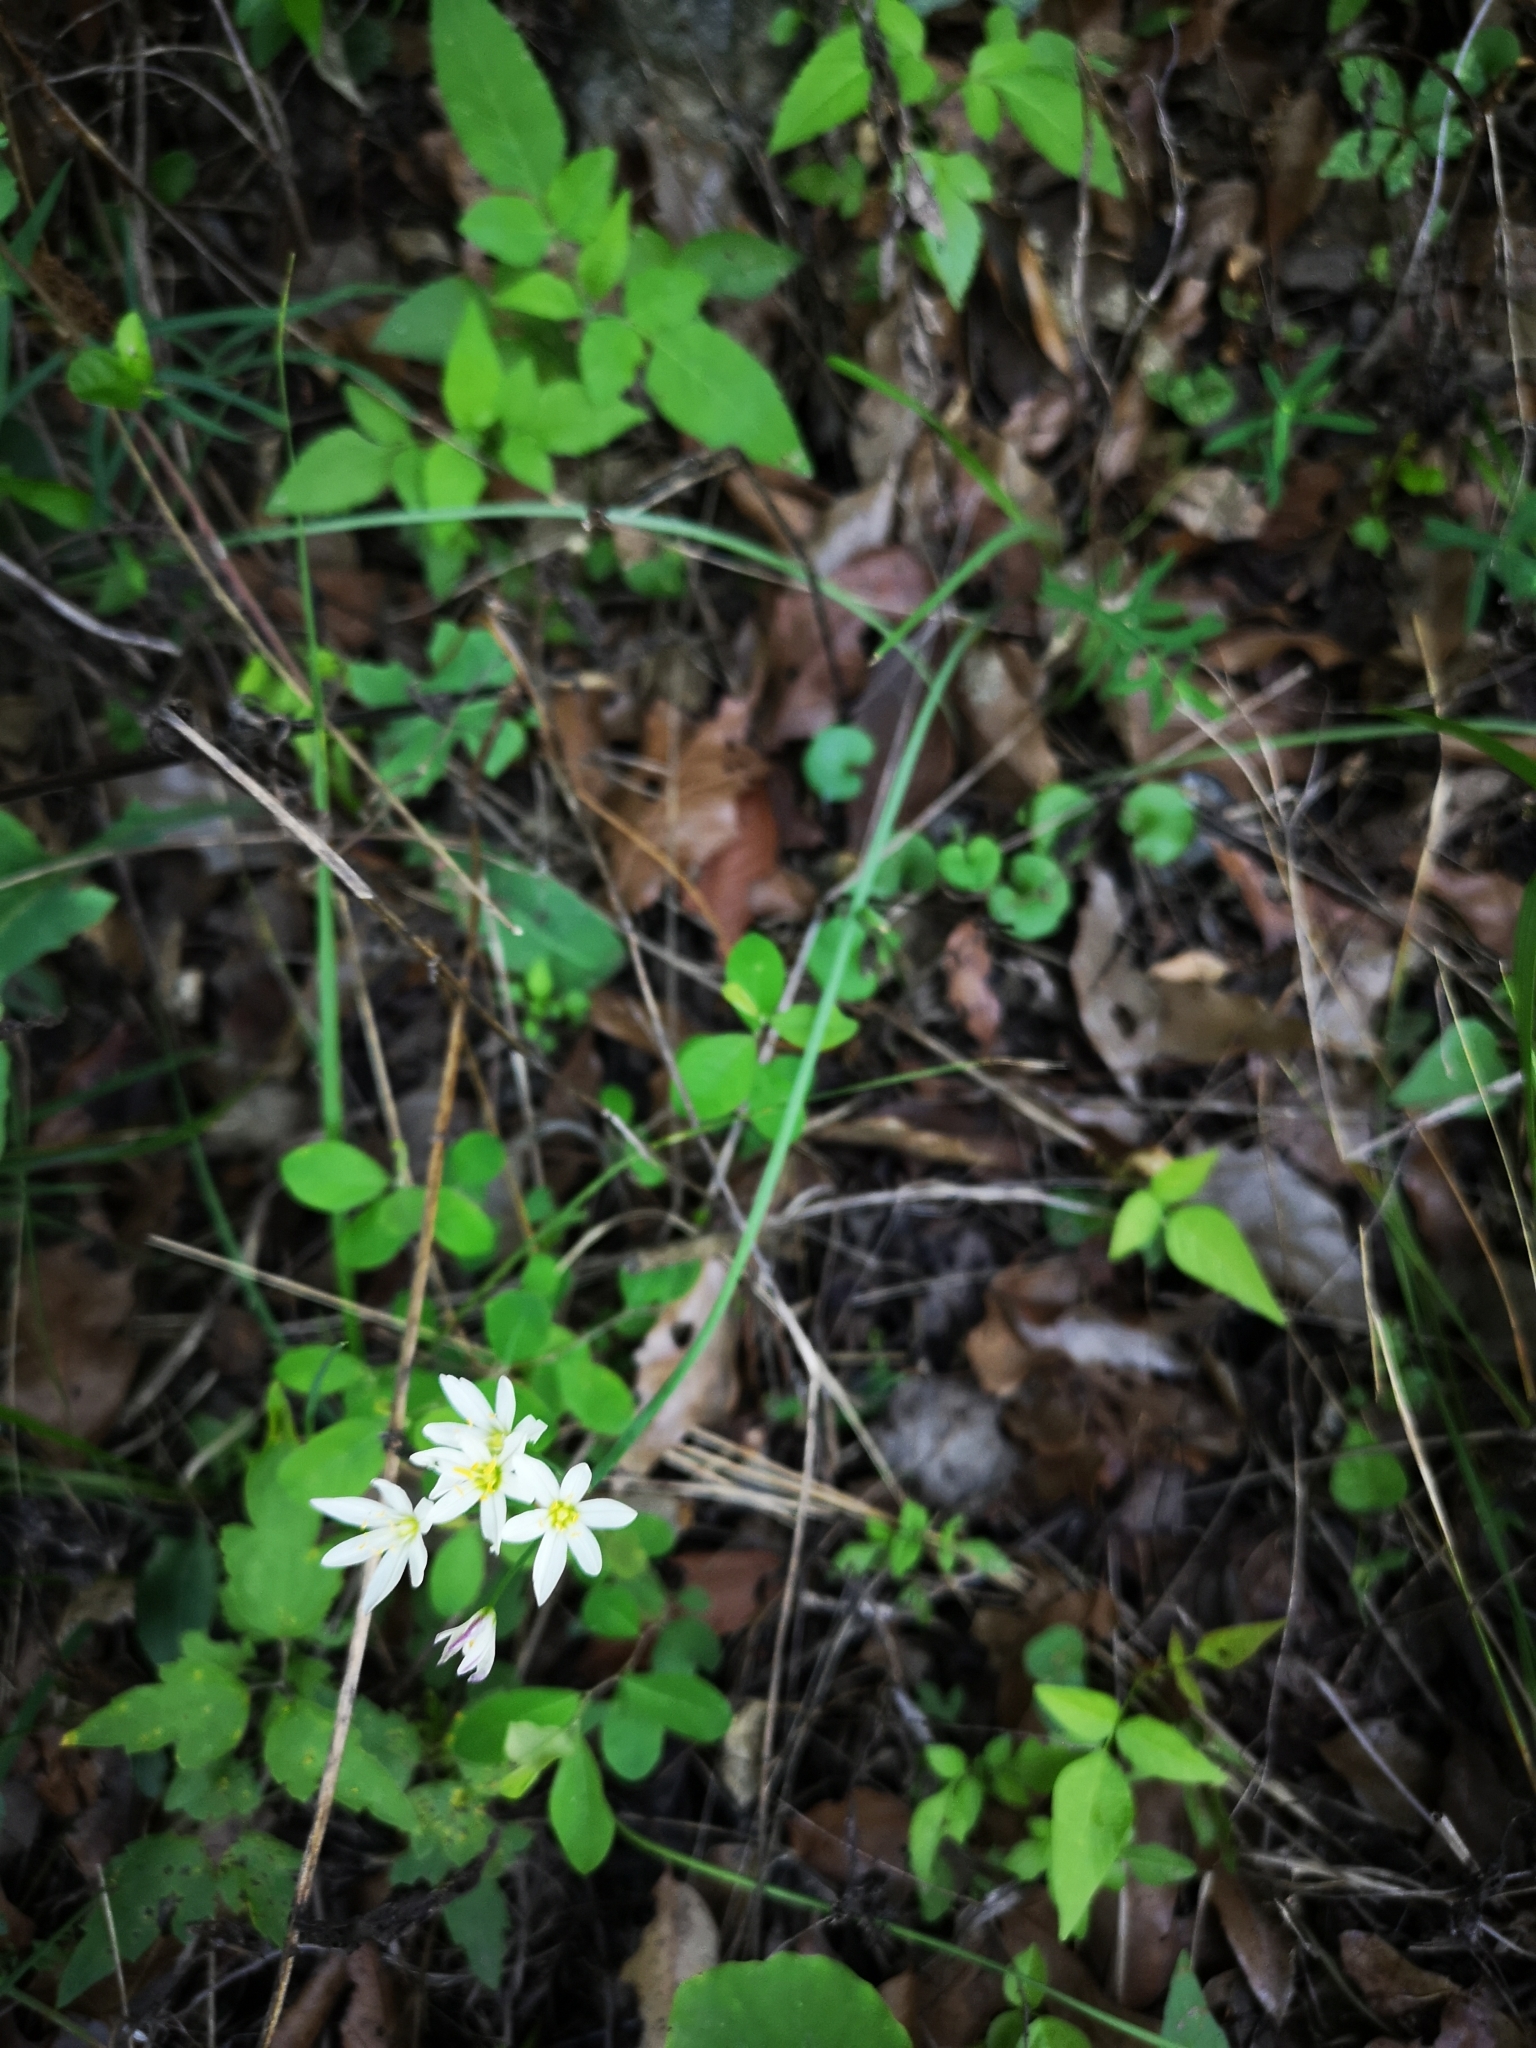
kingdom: Plantae
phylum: Tracheophyta
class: Liliopsida
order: Asparagales
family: Amaryllidaceae
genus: Nothoscordum
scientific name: Nothoscordum bivalve
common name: Crow-poison
